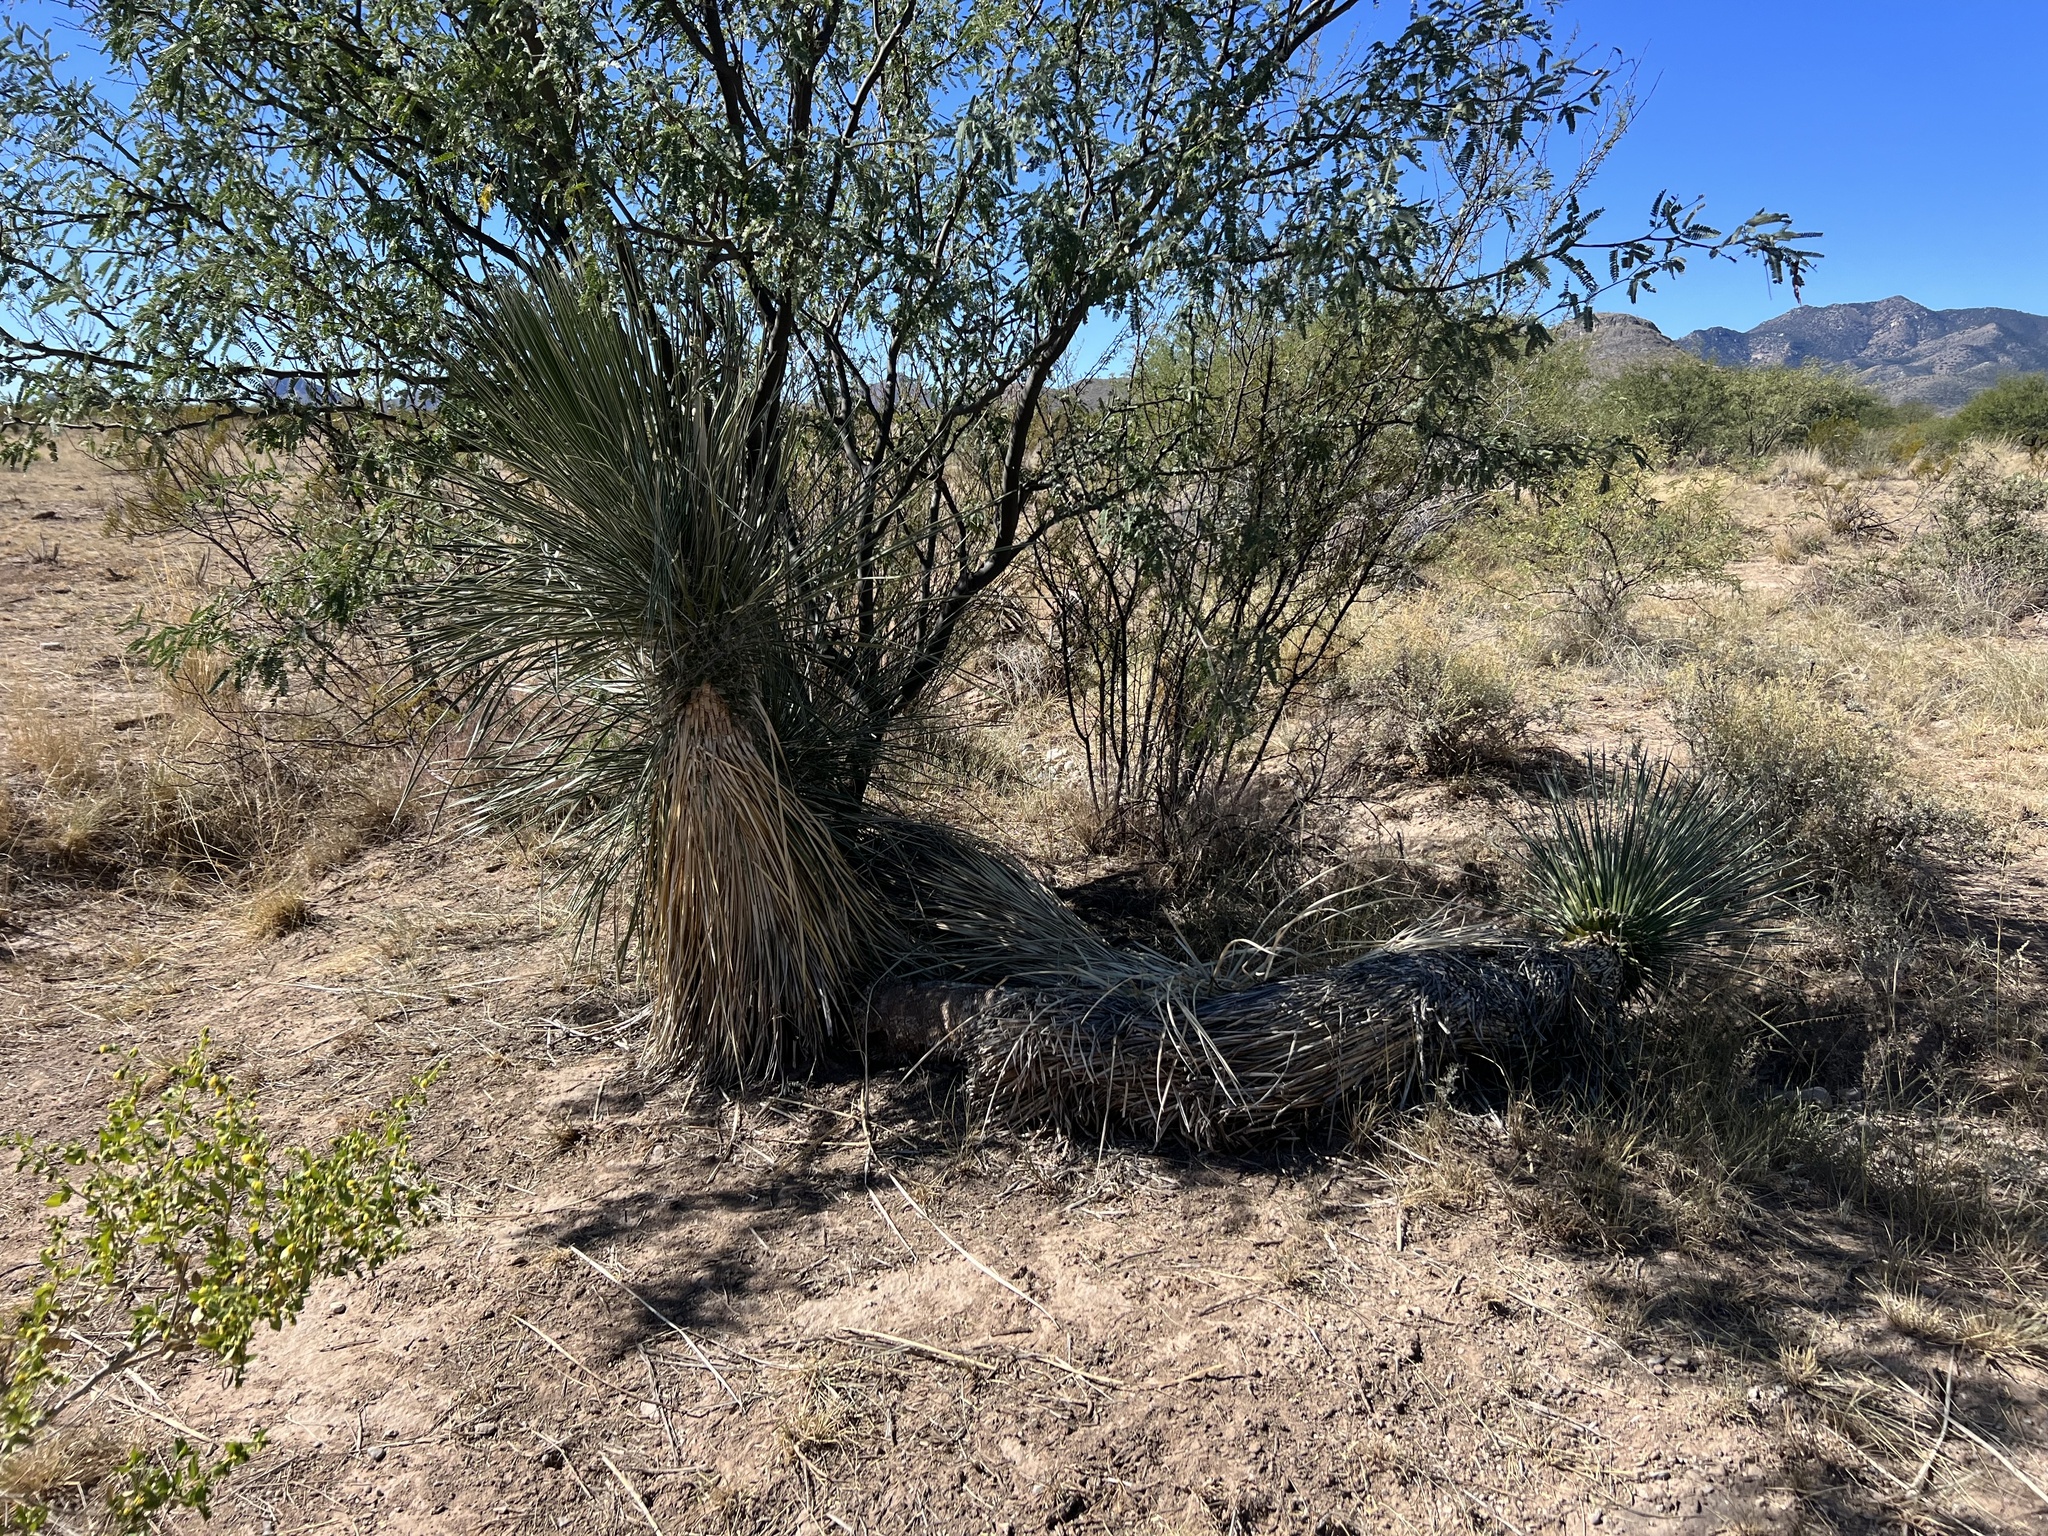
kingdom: Plantae
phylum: Tracheophyta
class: Liliopsida
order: Asparagales
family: Asparagaceae
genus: Yucca
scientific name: Yucca elata
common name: Palmella
